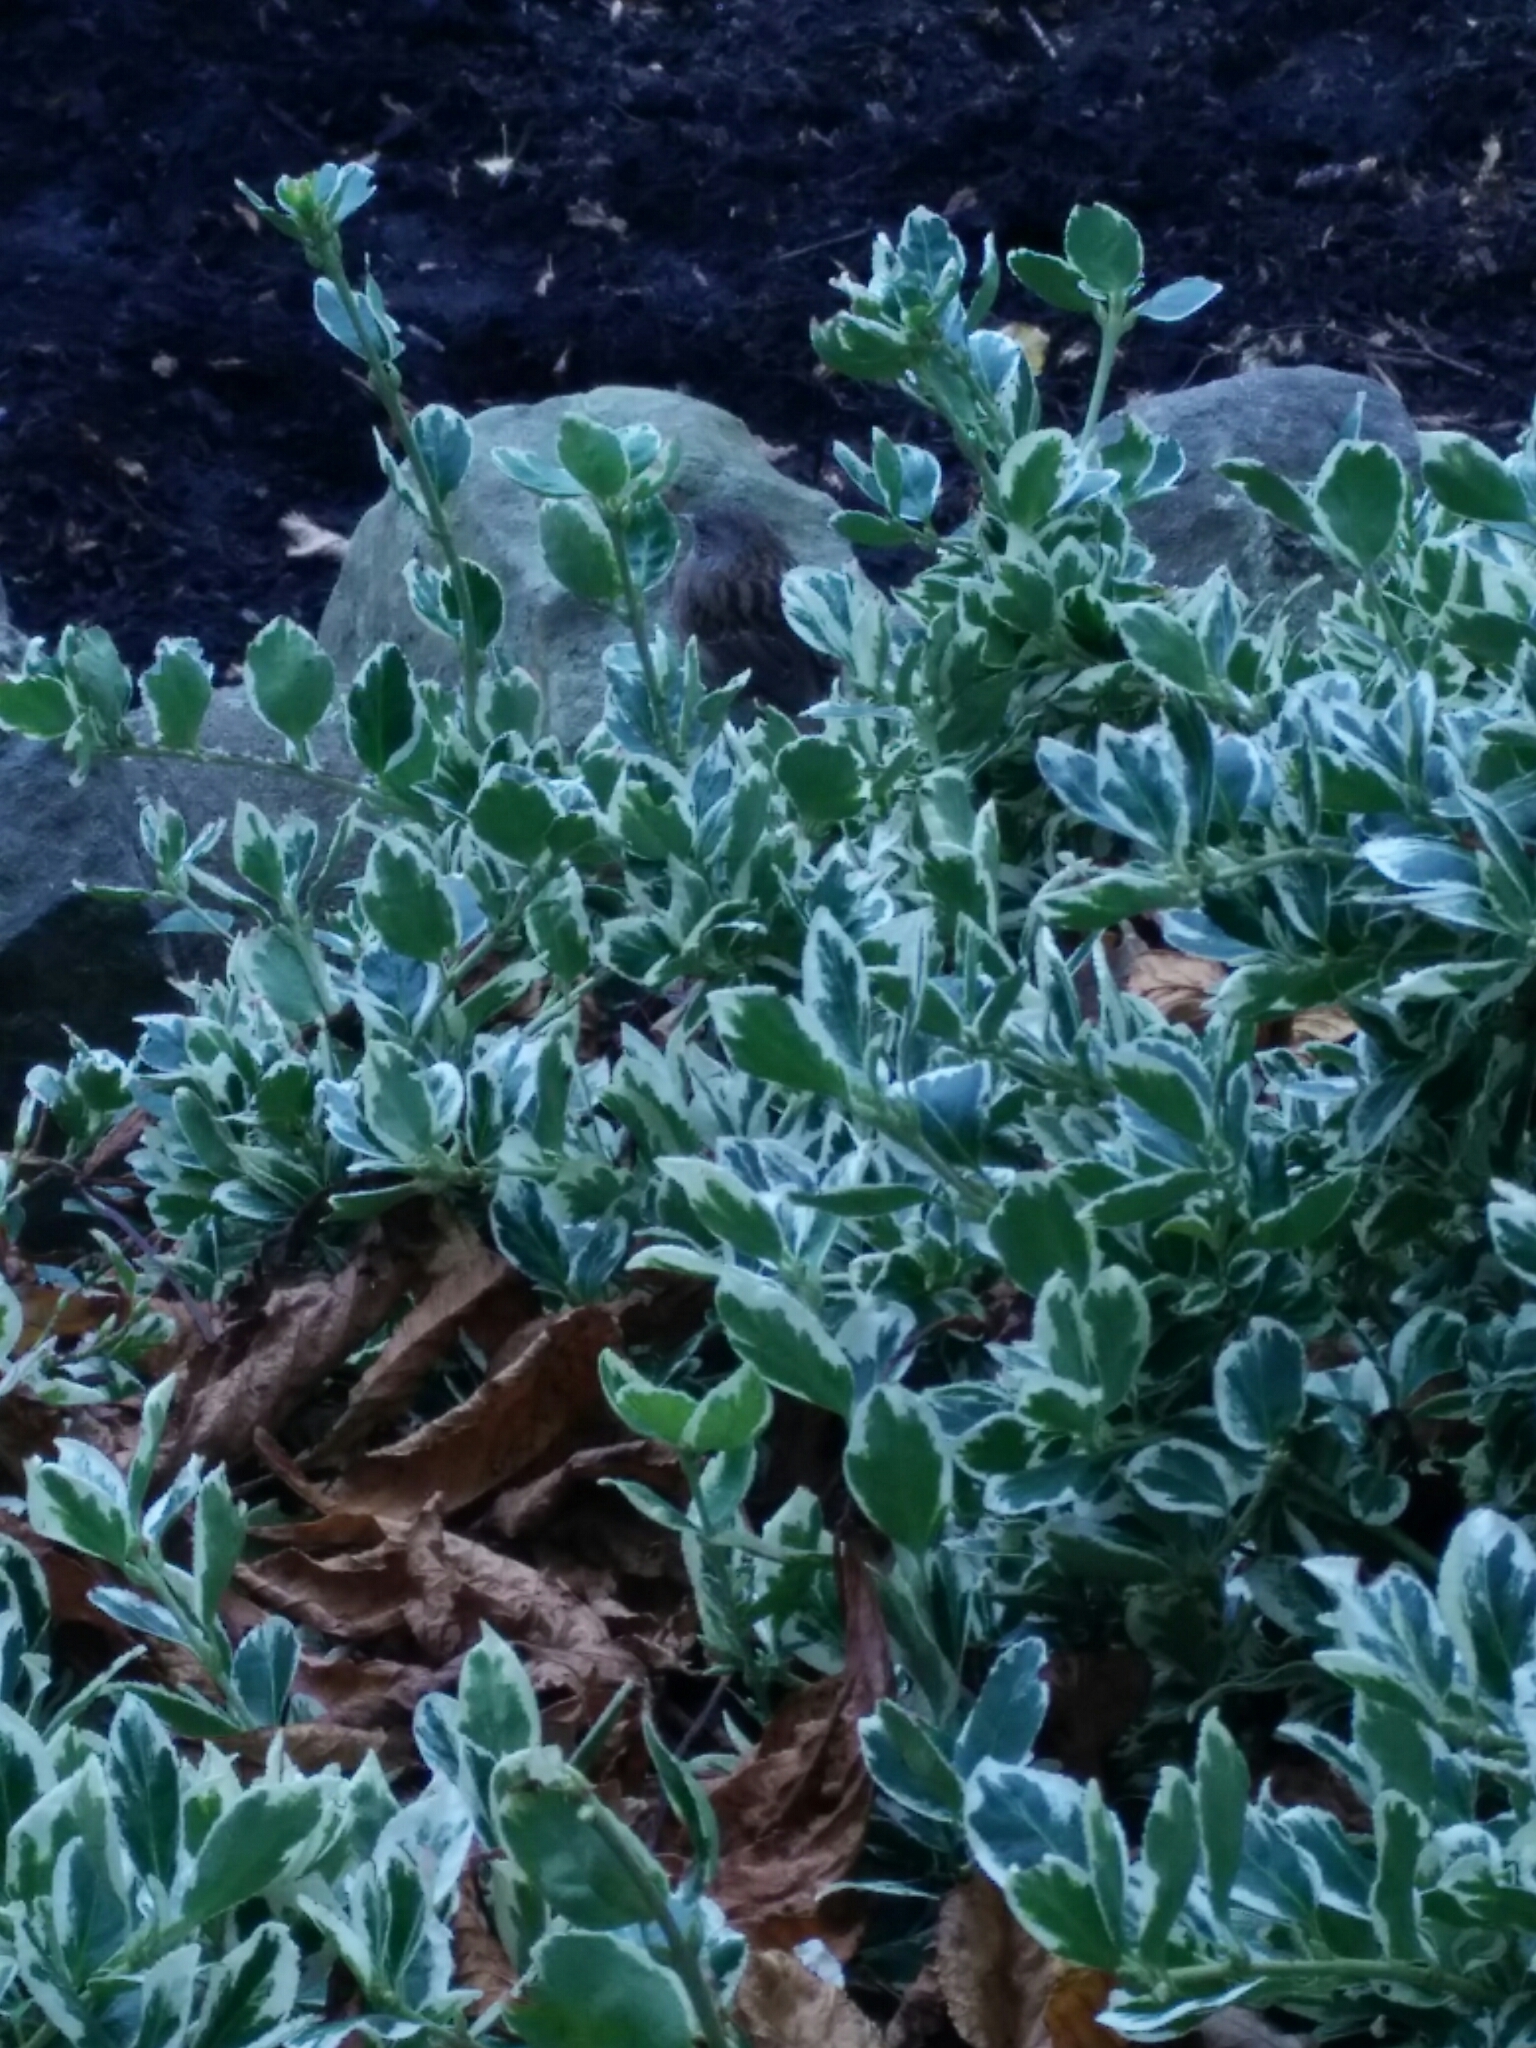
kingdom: Animalia
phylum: Chordata
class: Aves
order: Passeriformes
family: Prunellidae
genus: Prunella
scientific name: Prunella modularis
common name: Dunnock
